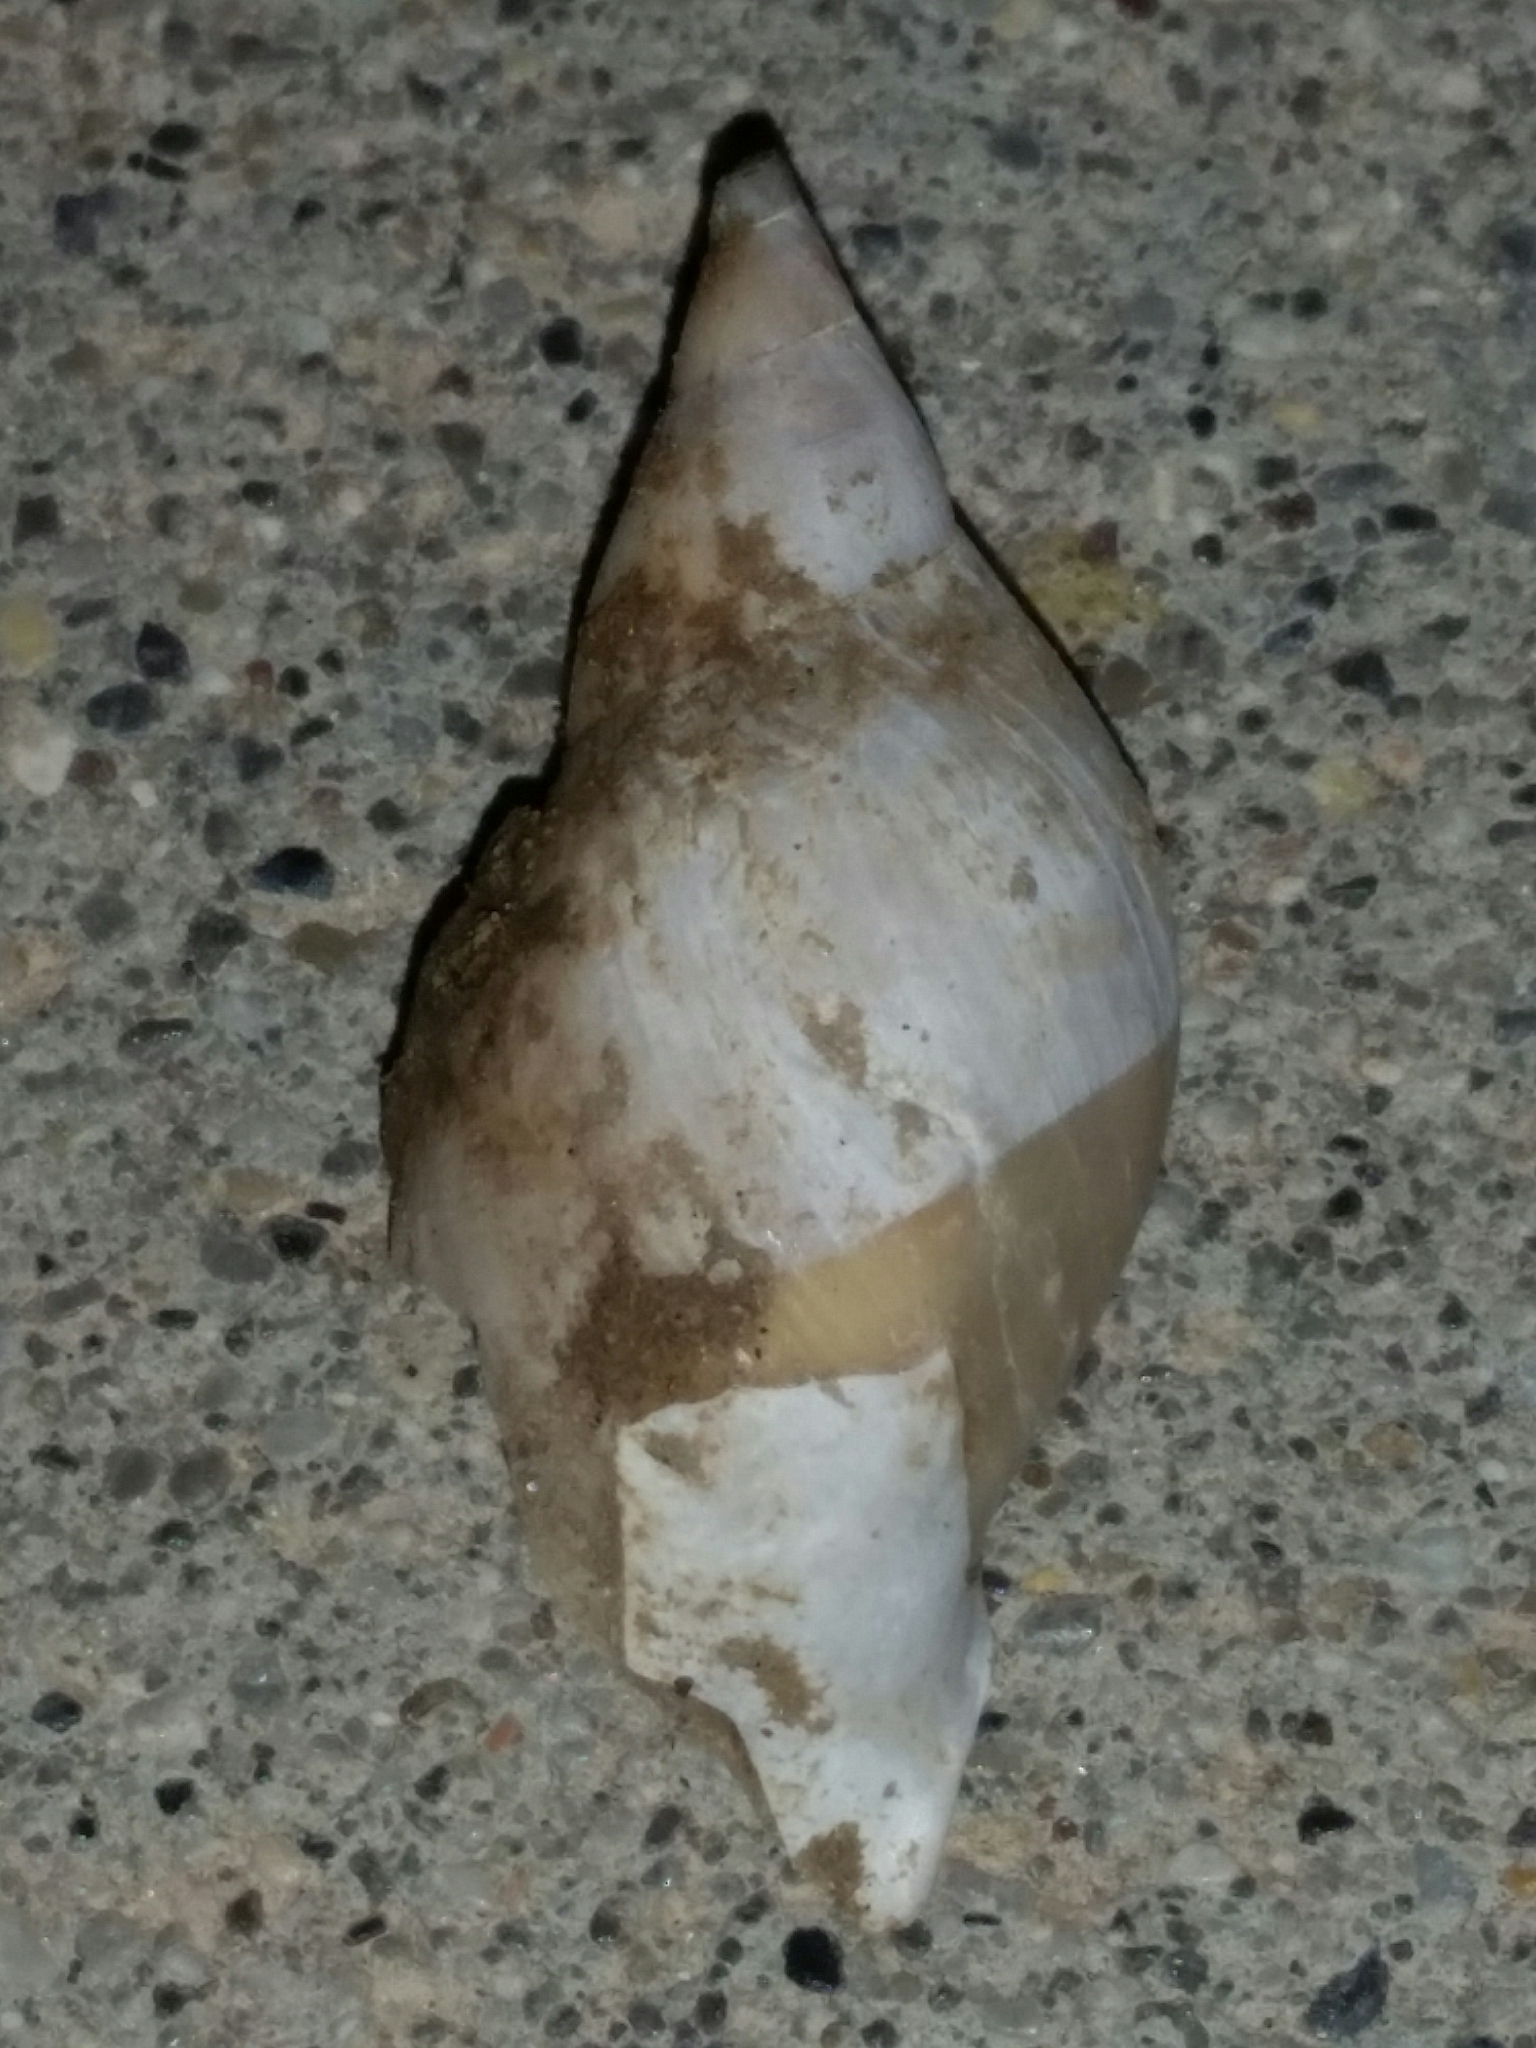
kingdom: Animalia
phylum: Mollusca
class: Gastropoda
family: Lymnaeidae
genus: Lymnaea
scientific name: Lymnaea stagnalis
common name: Great pond snail
